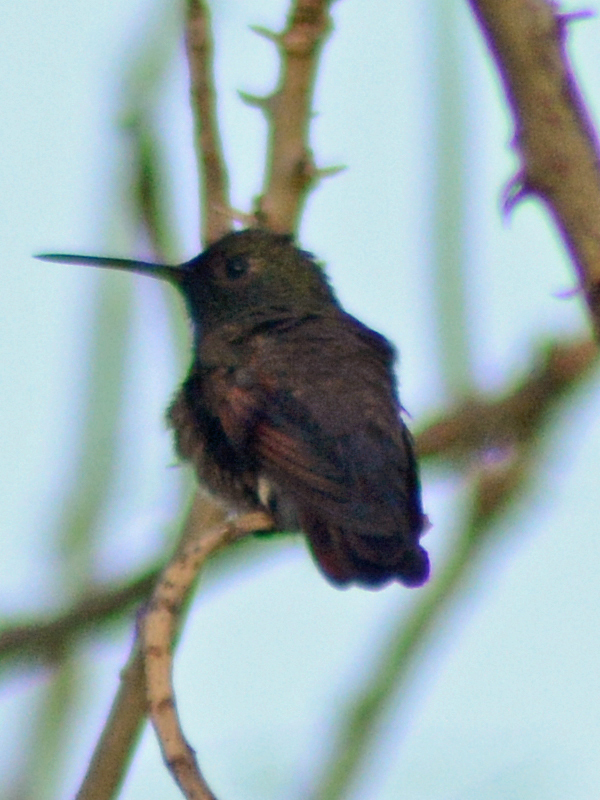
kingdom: Animalia
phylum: Chordata
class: Aves
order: Apodiformes
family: Trochilidae
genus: Saucerottia
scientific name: Saucerottia beryllina
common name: Berylline hummingbird
